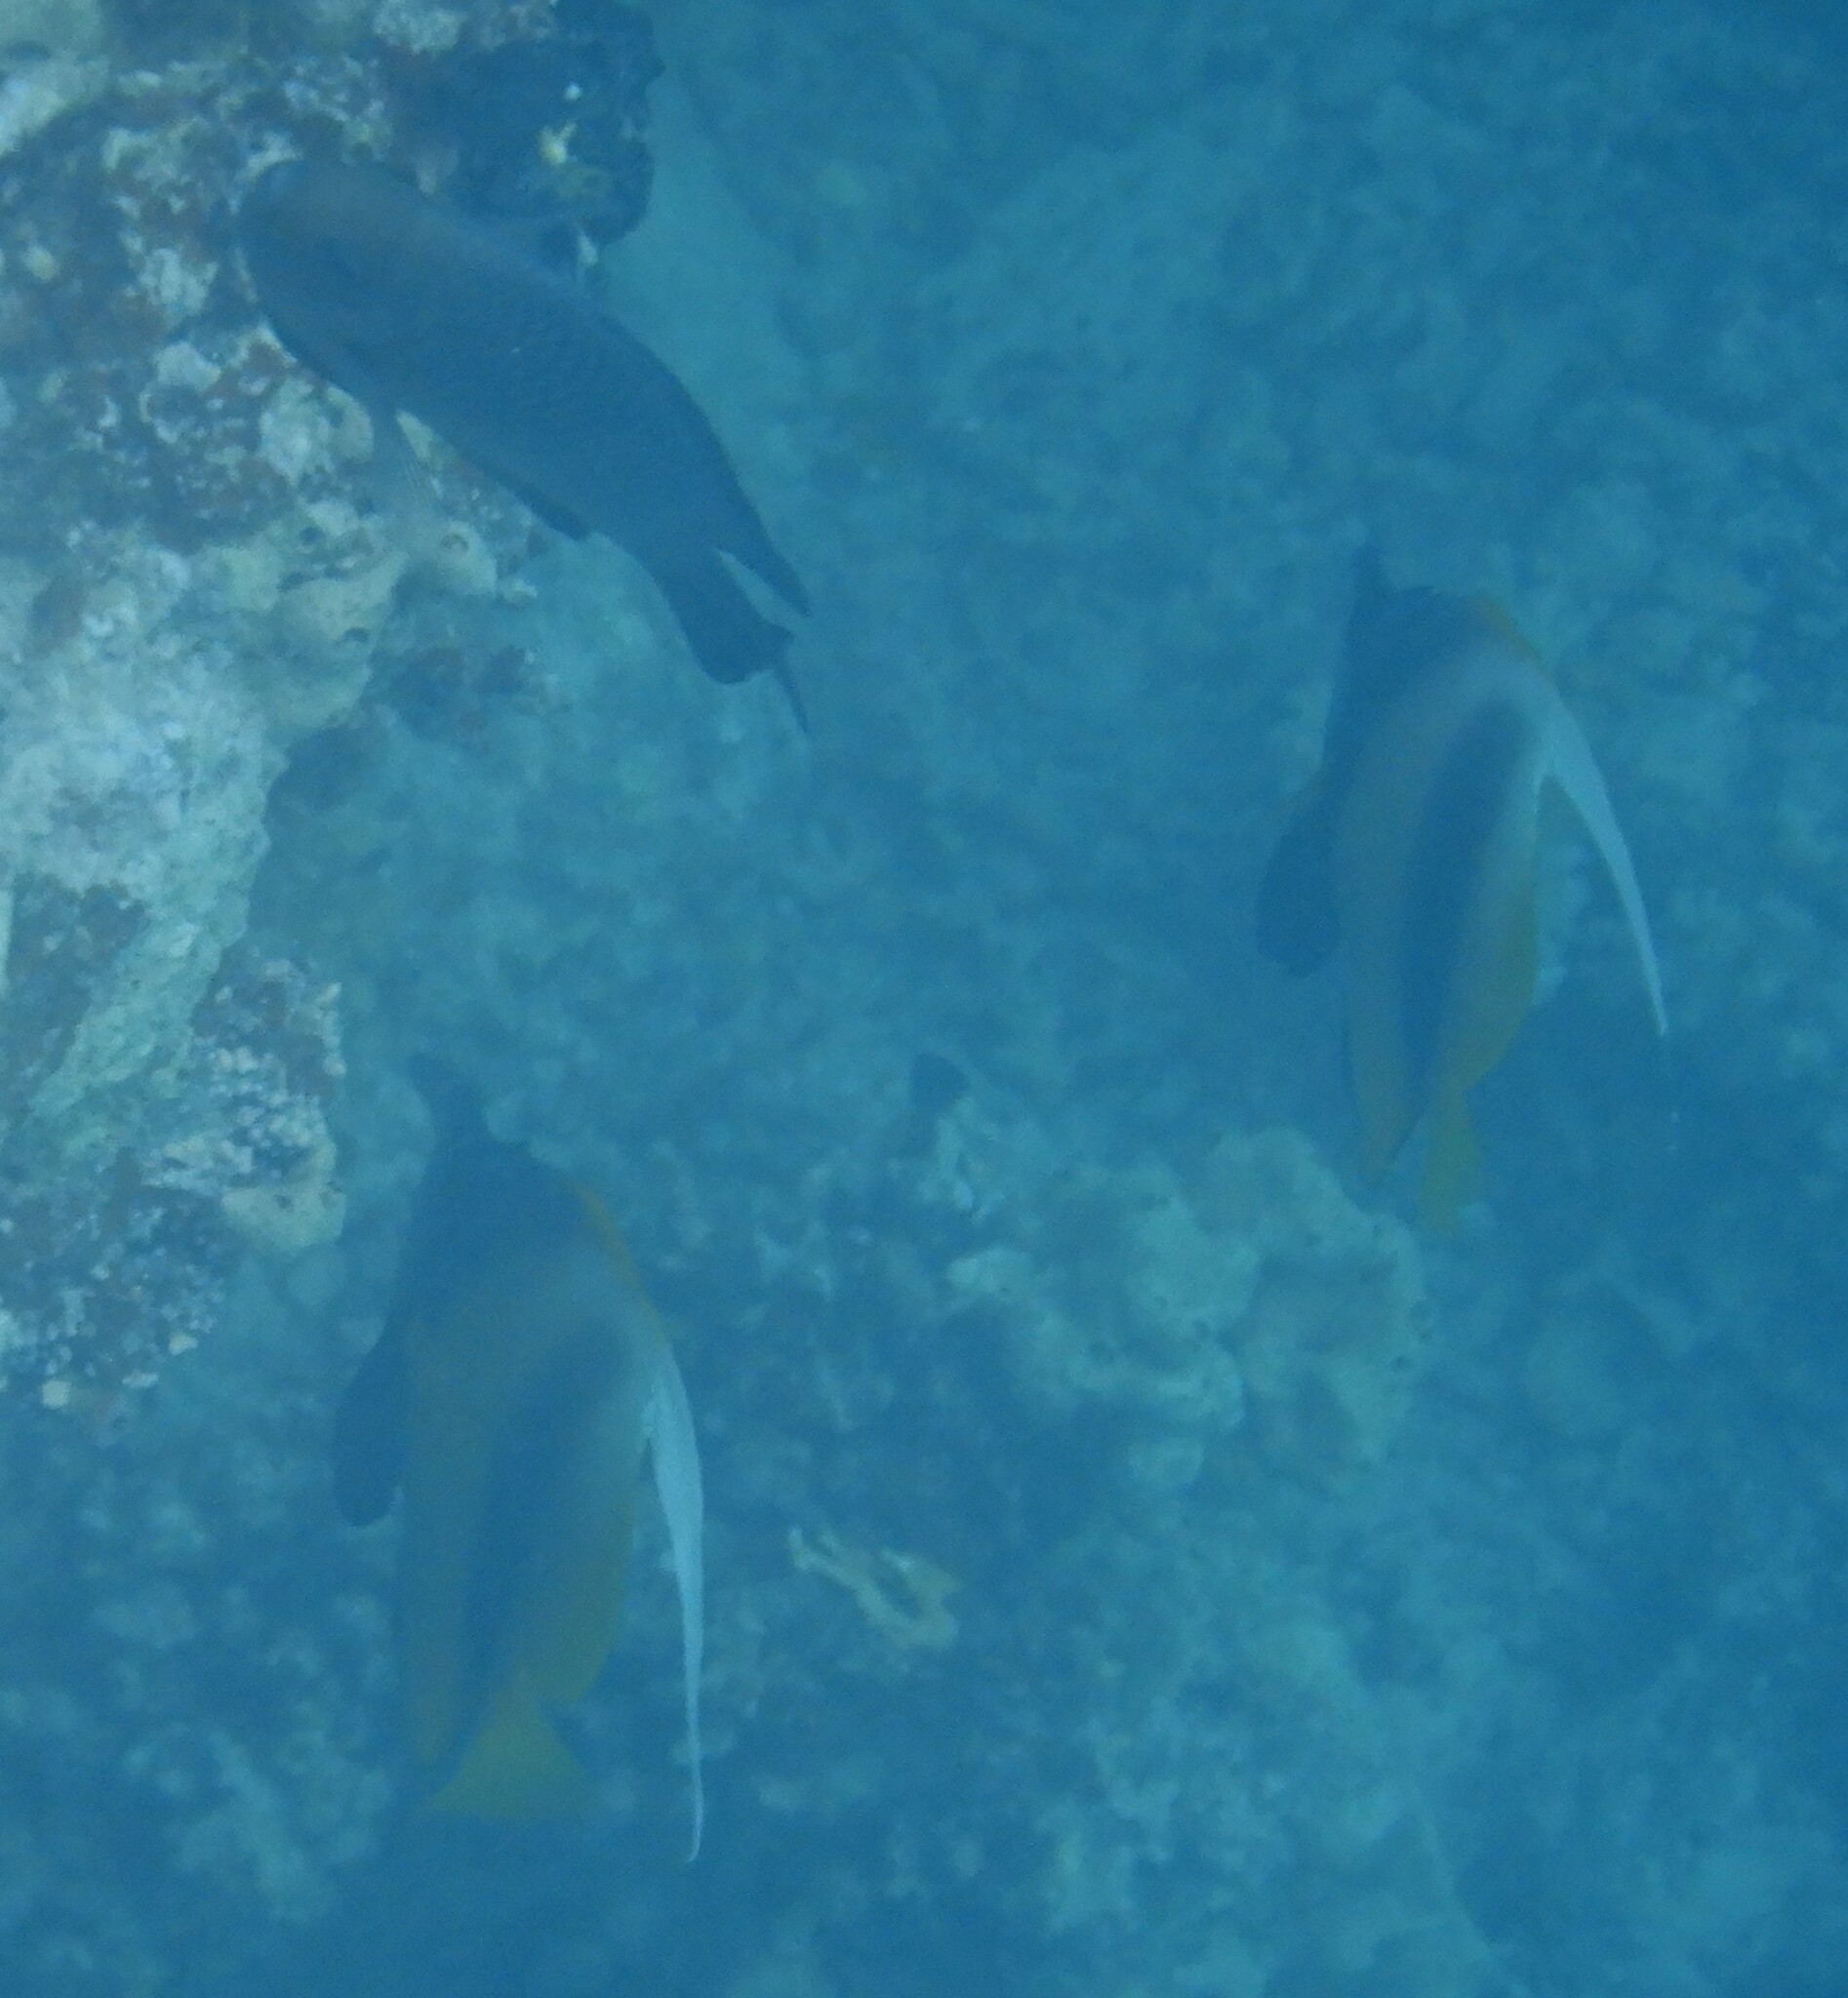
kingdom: Animalia
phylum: Chordata
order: Perciformes
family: Chaetodontidae
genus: Heniochus
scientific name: Heniochus intermedius
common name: Red sea bannerfish
